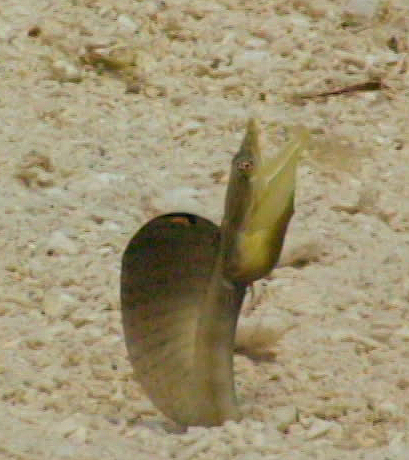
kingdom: Animalia
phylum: Chordata
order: Perciformes
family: Chaenopsidae
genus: Chaenopsis
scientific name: Chaenopsis limbaughi
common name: Yellowface pikeblenny
